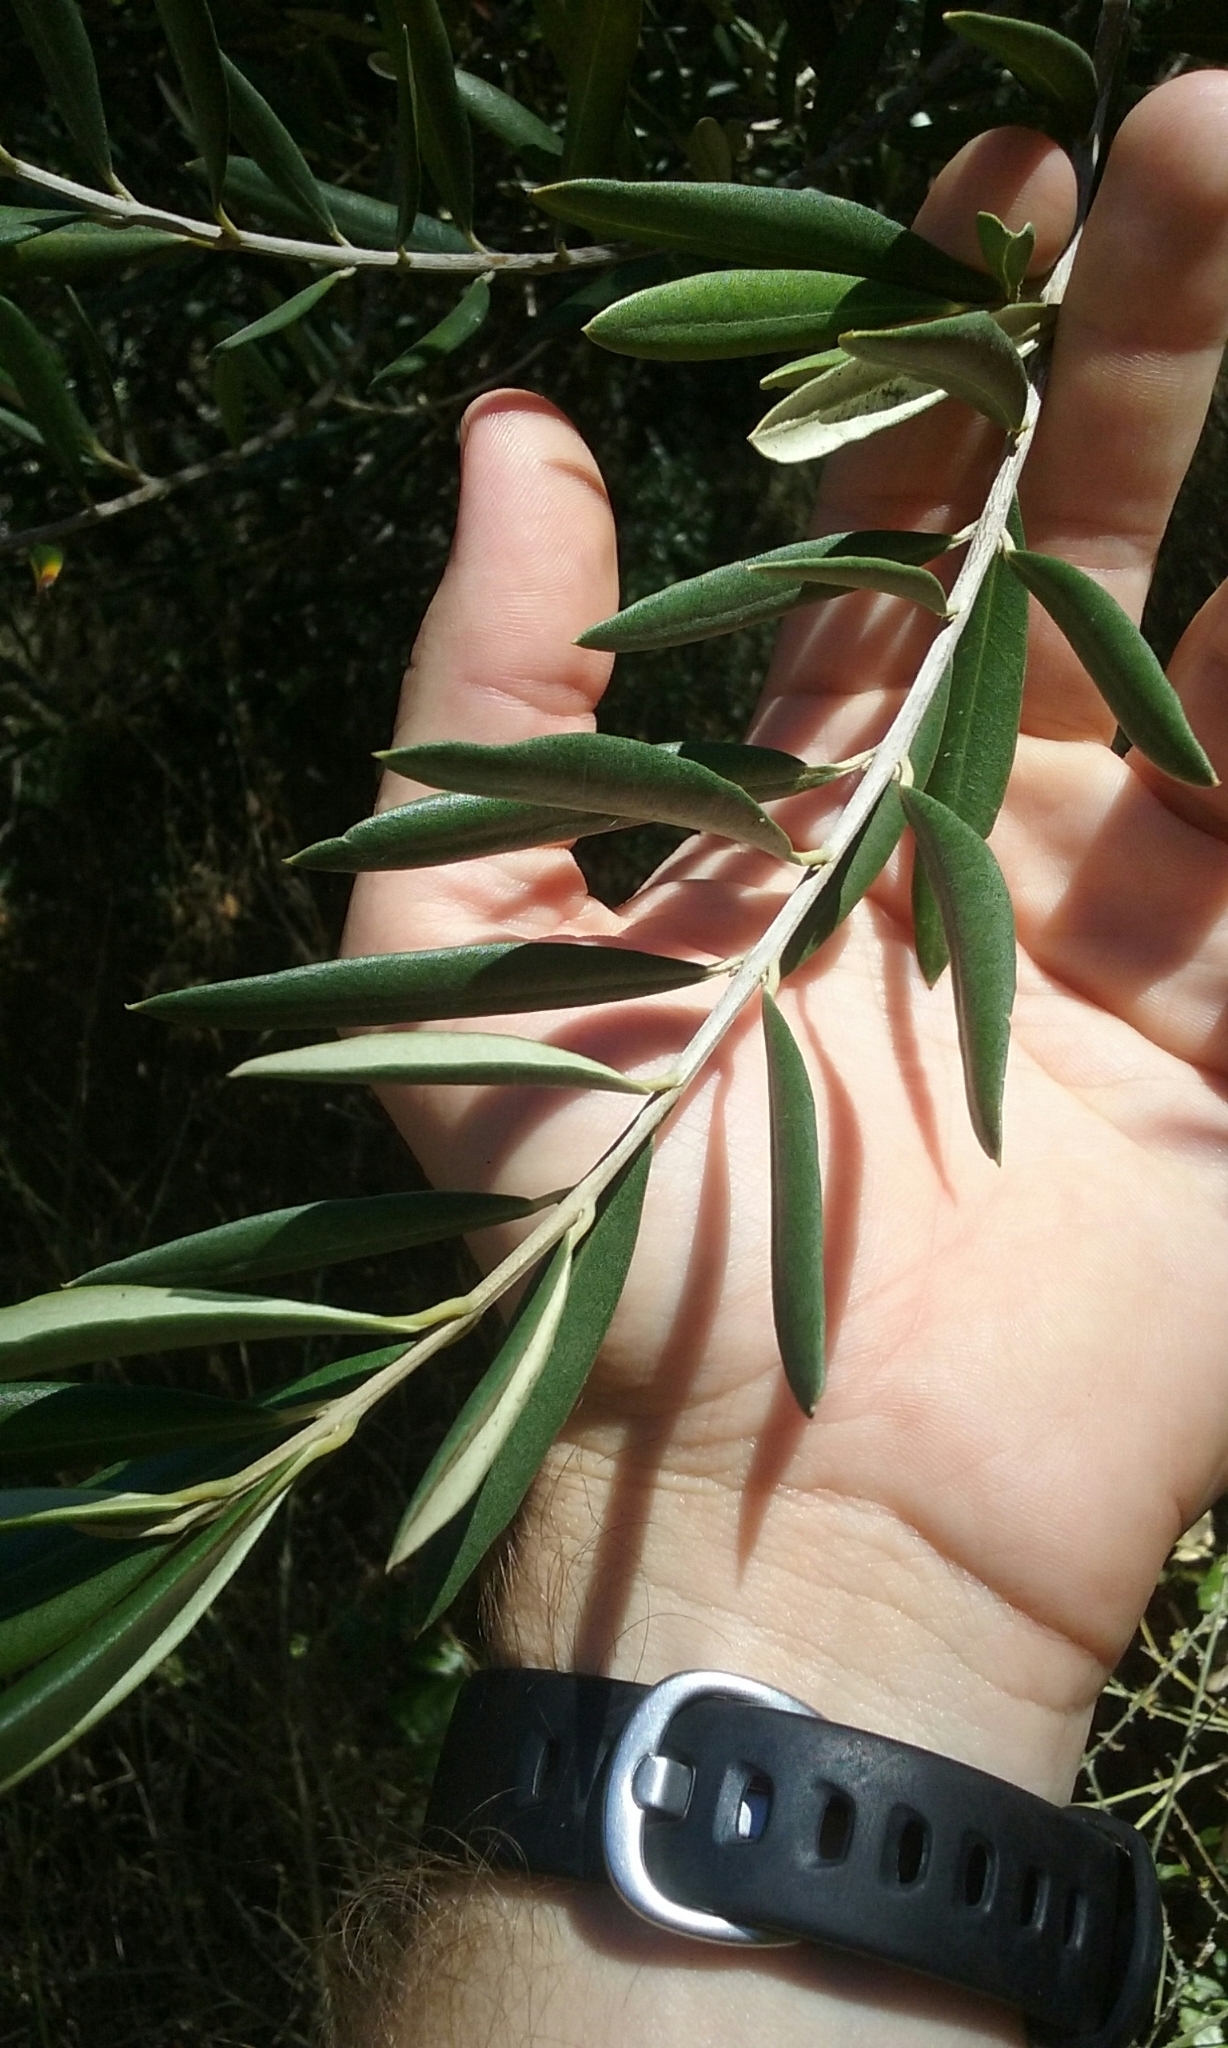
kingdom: Plantae
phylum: Tracheophyta
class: Magnoliopsida
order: Lamiales
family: Oleaceae
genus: Olea
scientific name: Olea europaea
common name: Olive
